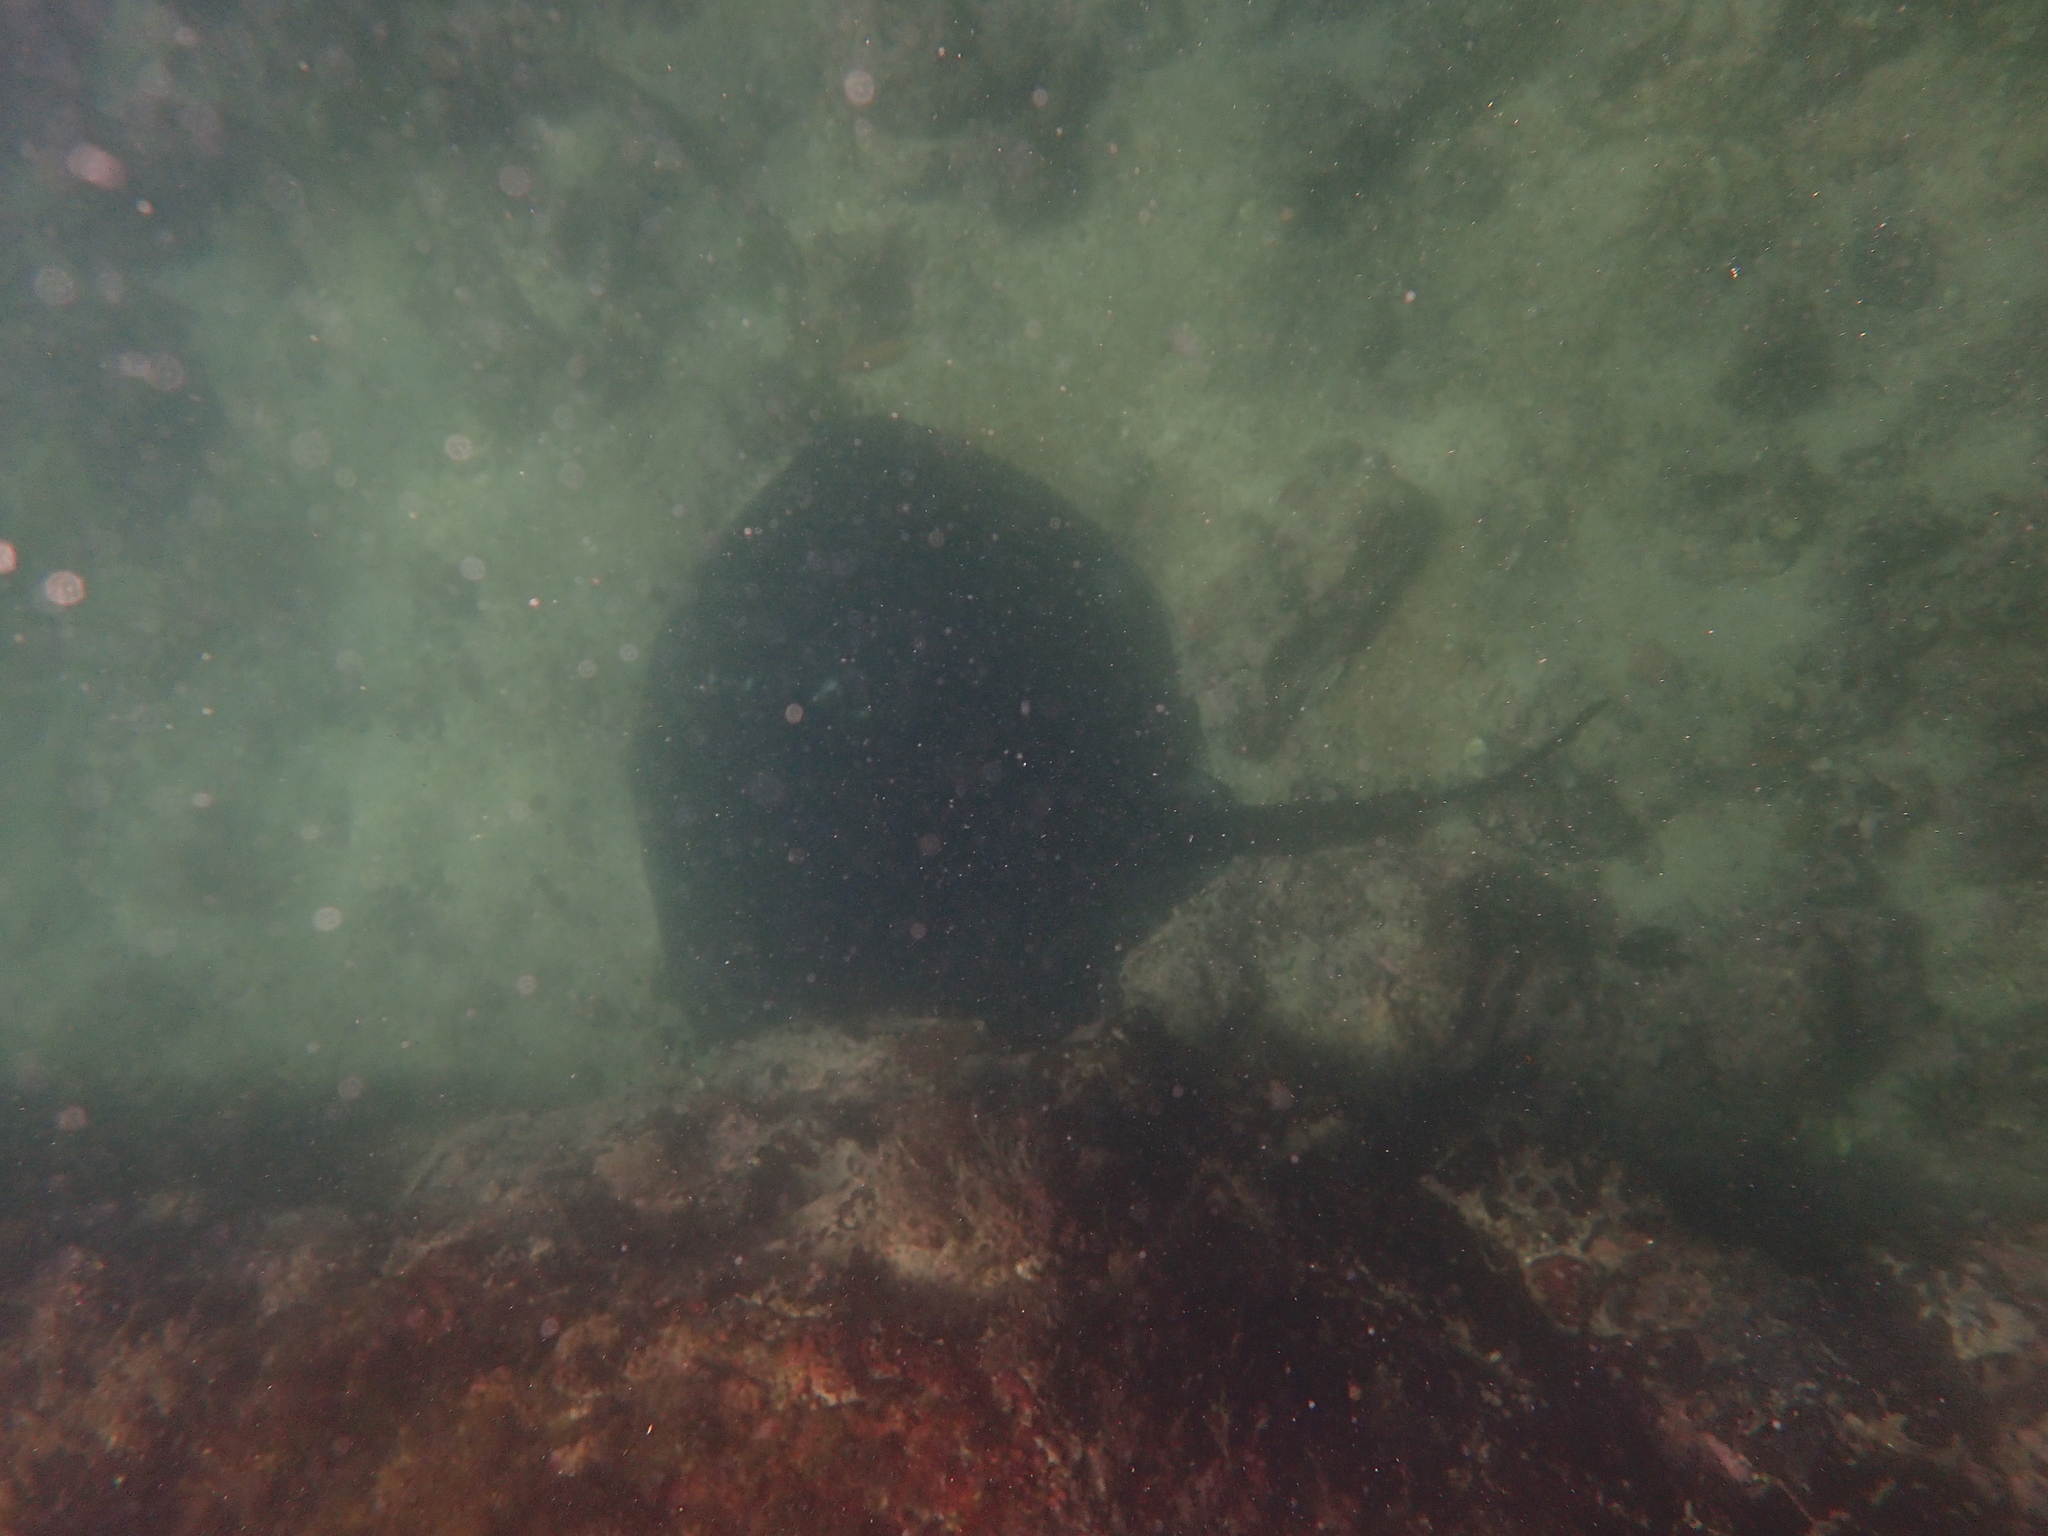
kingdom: Animalia
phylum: Chordata
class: Elasmobranchii
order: Myliobatiformes
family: Dasyatidae
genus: Taeniurops
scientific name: Taeniurops meyeni
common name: Black-blotched stingray
